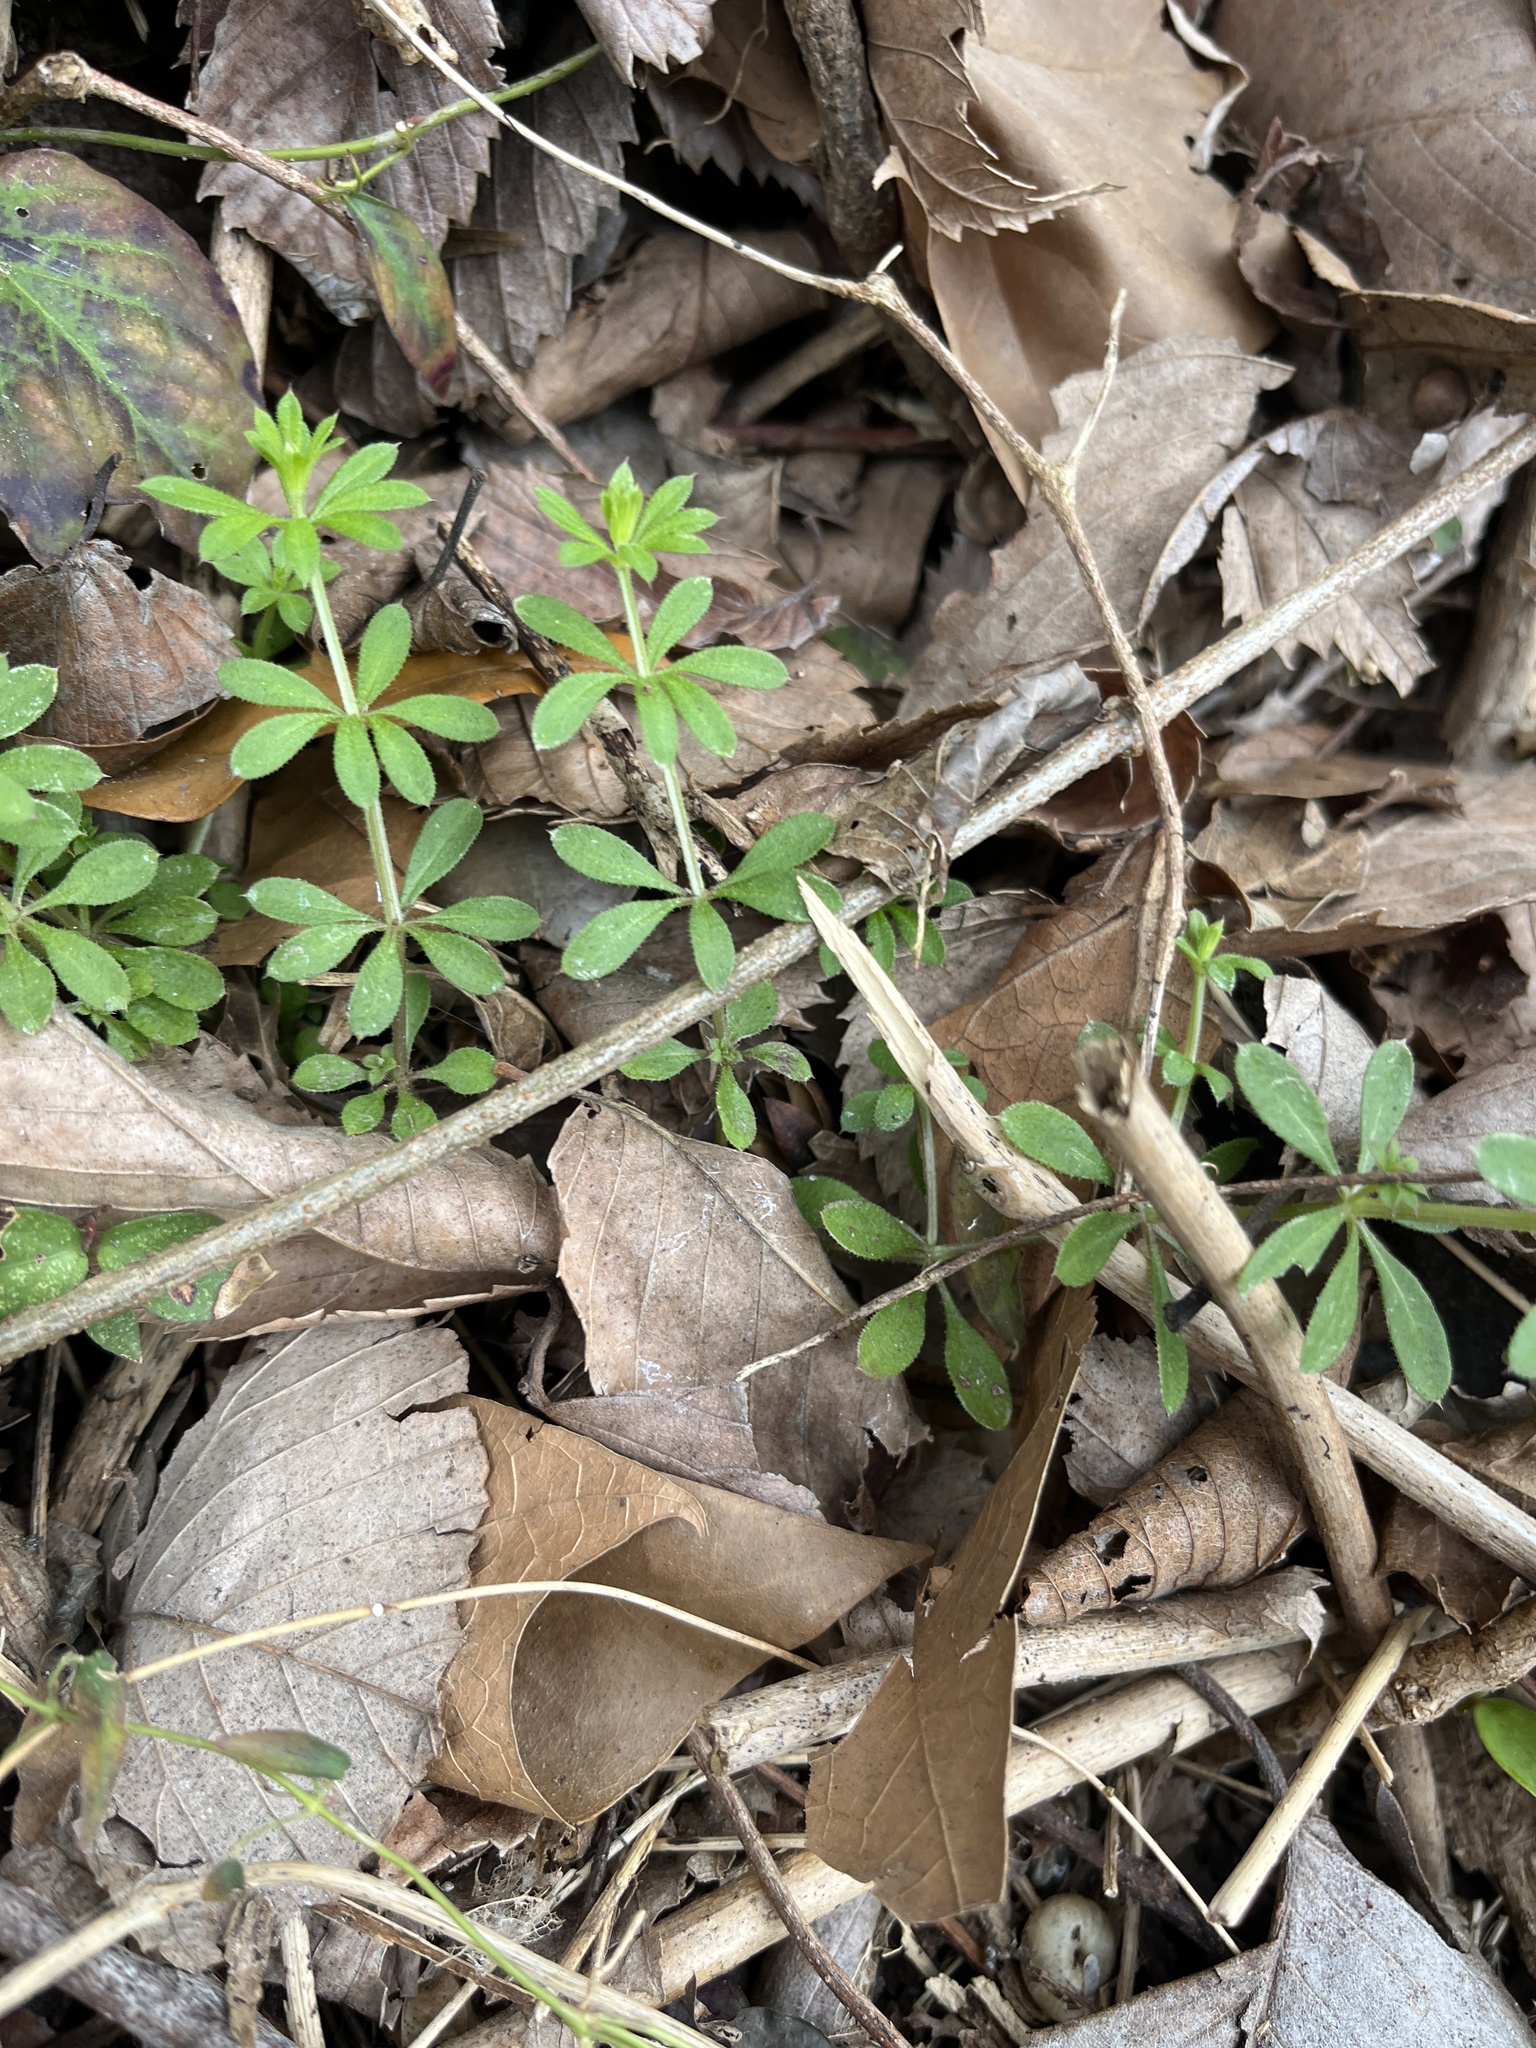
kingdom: Plantae
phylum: Tracheophyta
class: Magnoliopsida
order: Gentianales
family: Rubiaceae
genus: Galium
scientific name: Galium aparine
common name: Cleavers
